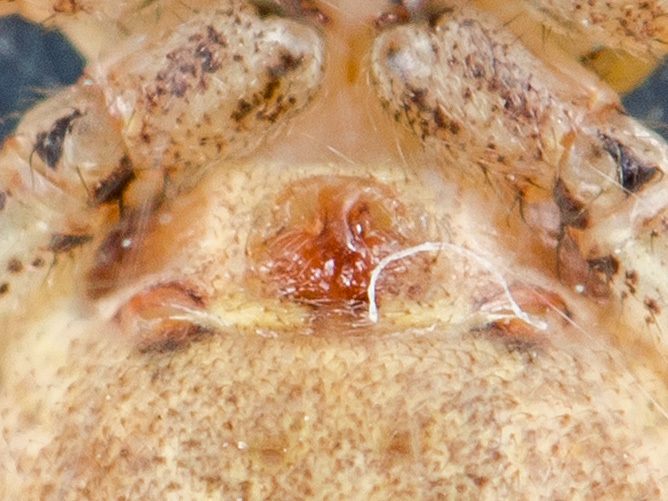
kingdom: Animalia
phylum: Arthropoda
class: Arachnida
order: Araneae
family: Thomisidae
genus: Xysticus
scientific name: Xysticus pseudocristatus
